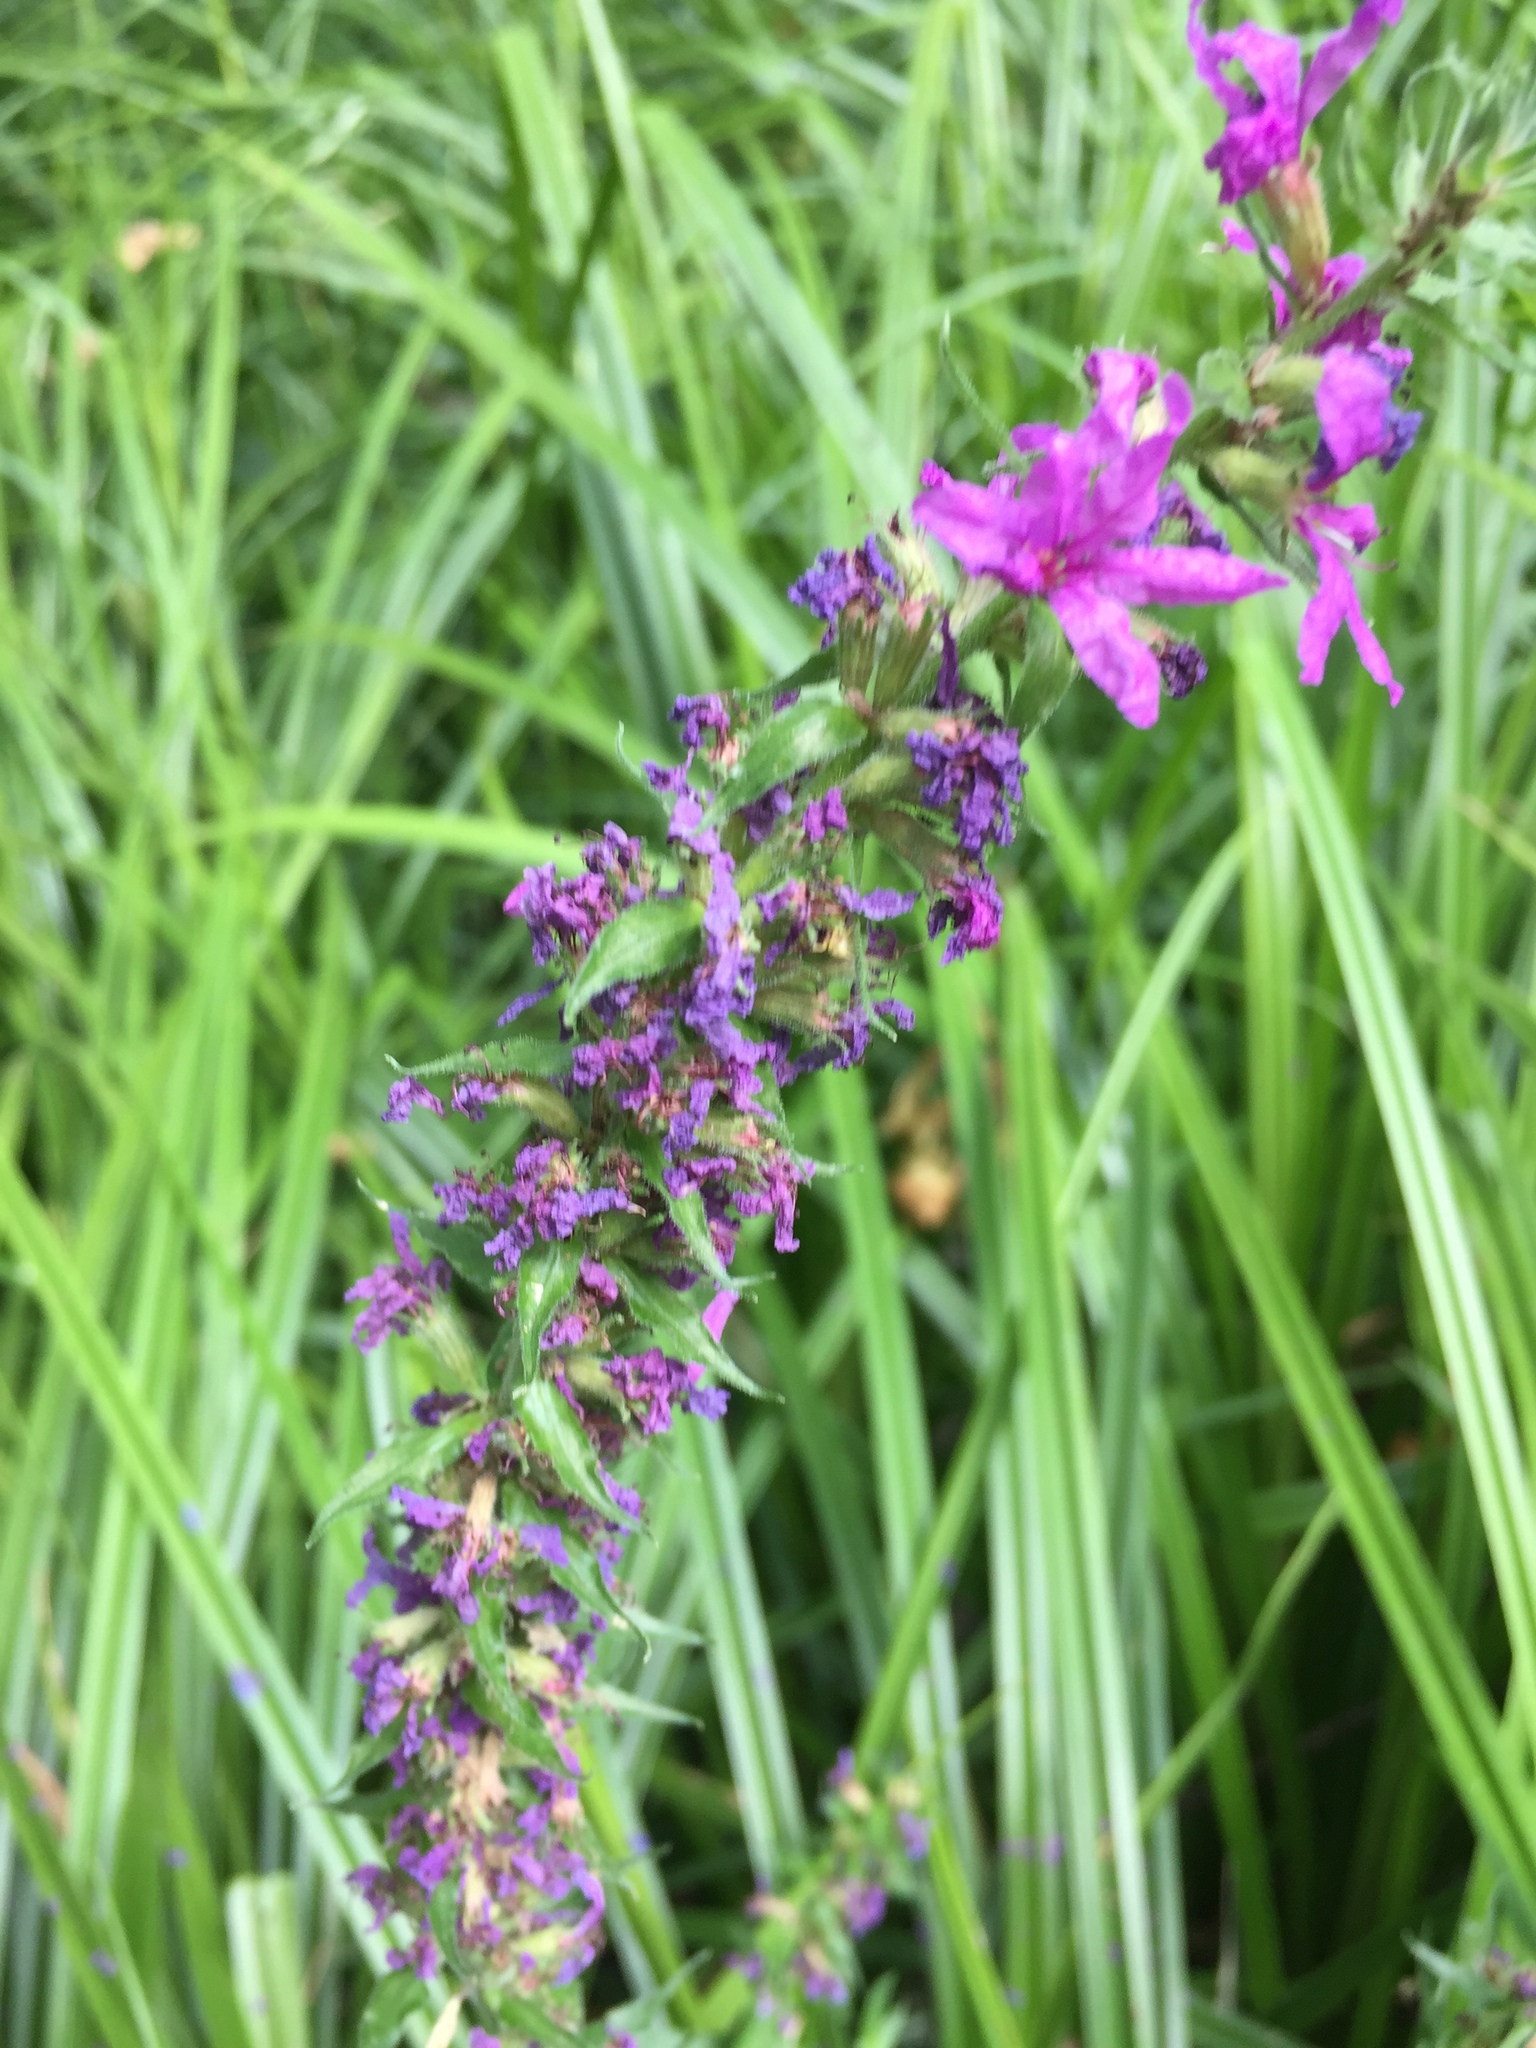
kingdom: Plantae
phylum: Tracheophyta
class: Magnoliopsida
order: Myrtales
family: Lythraceae
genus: Lythrum
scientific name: Lythrum salicaria
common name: Purple loosestrife
